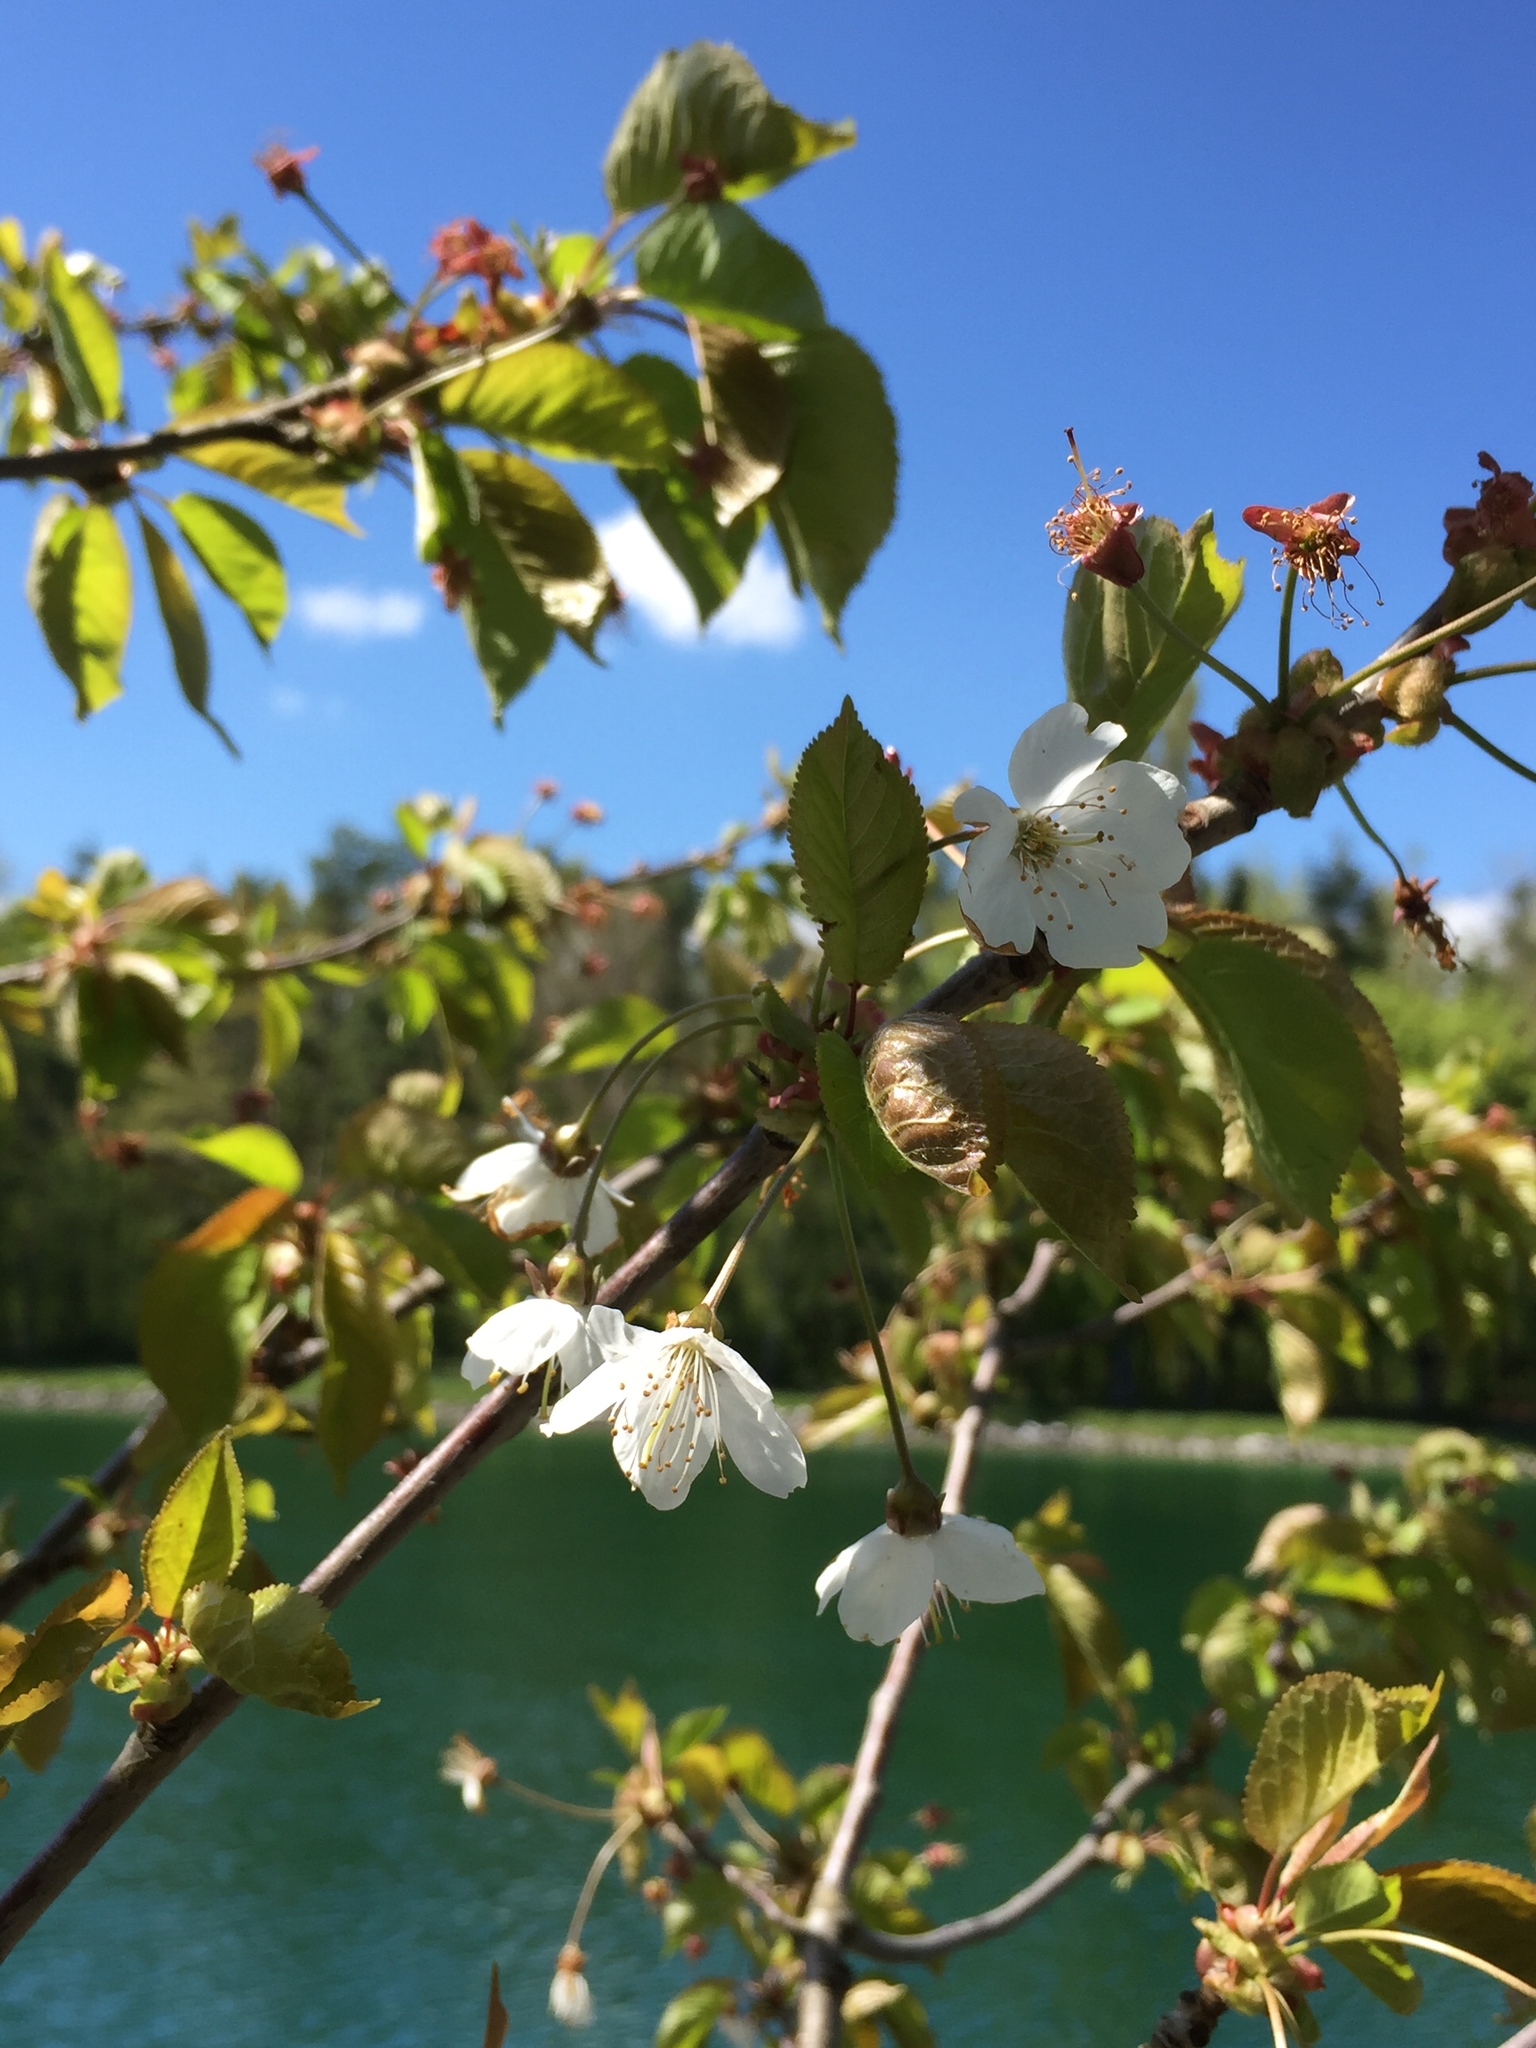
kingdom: Plantae
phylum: Tracheophyta
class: Magnoliopsida
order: Rosales
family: Rosaceae
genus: Prunus
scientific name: Prunus avium
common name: Sweet cherry
